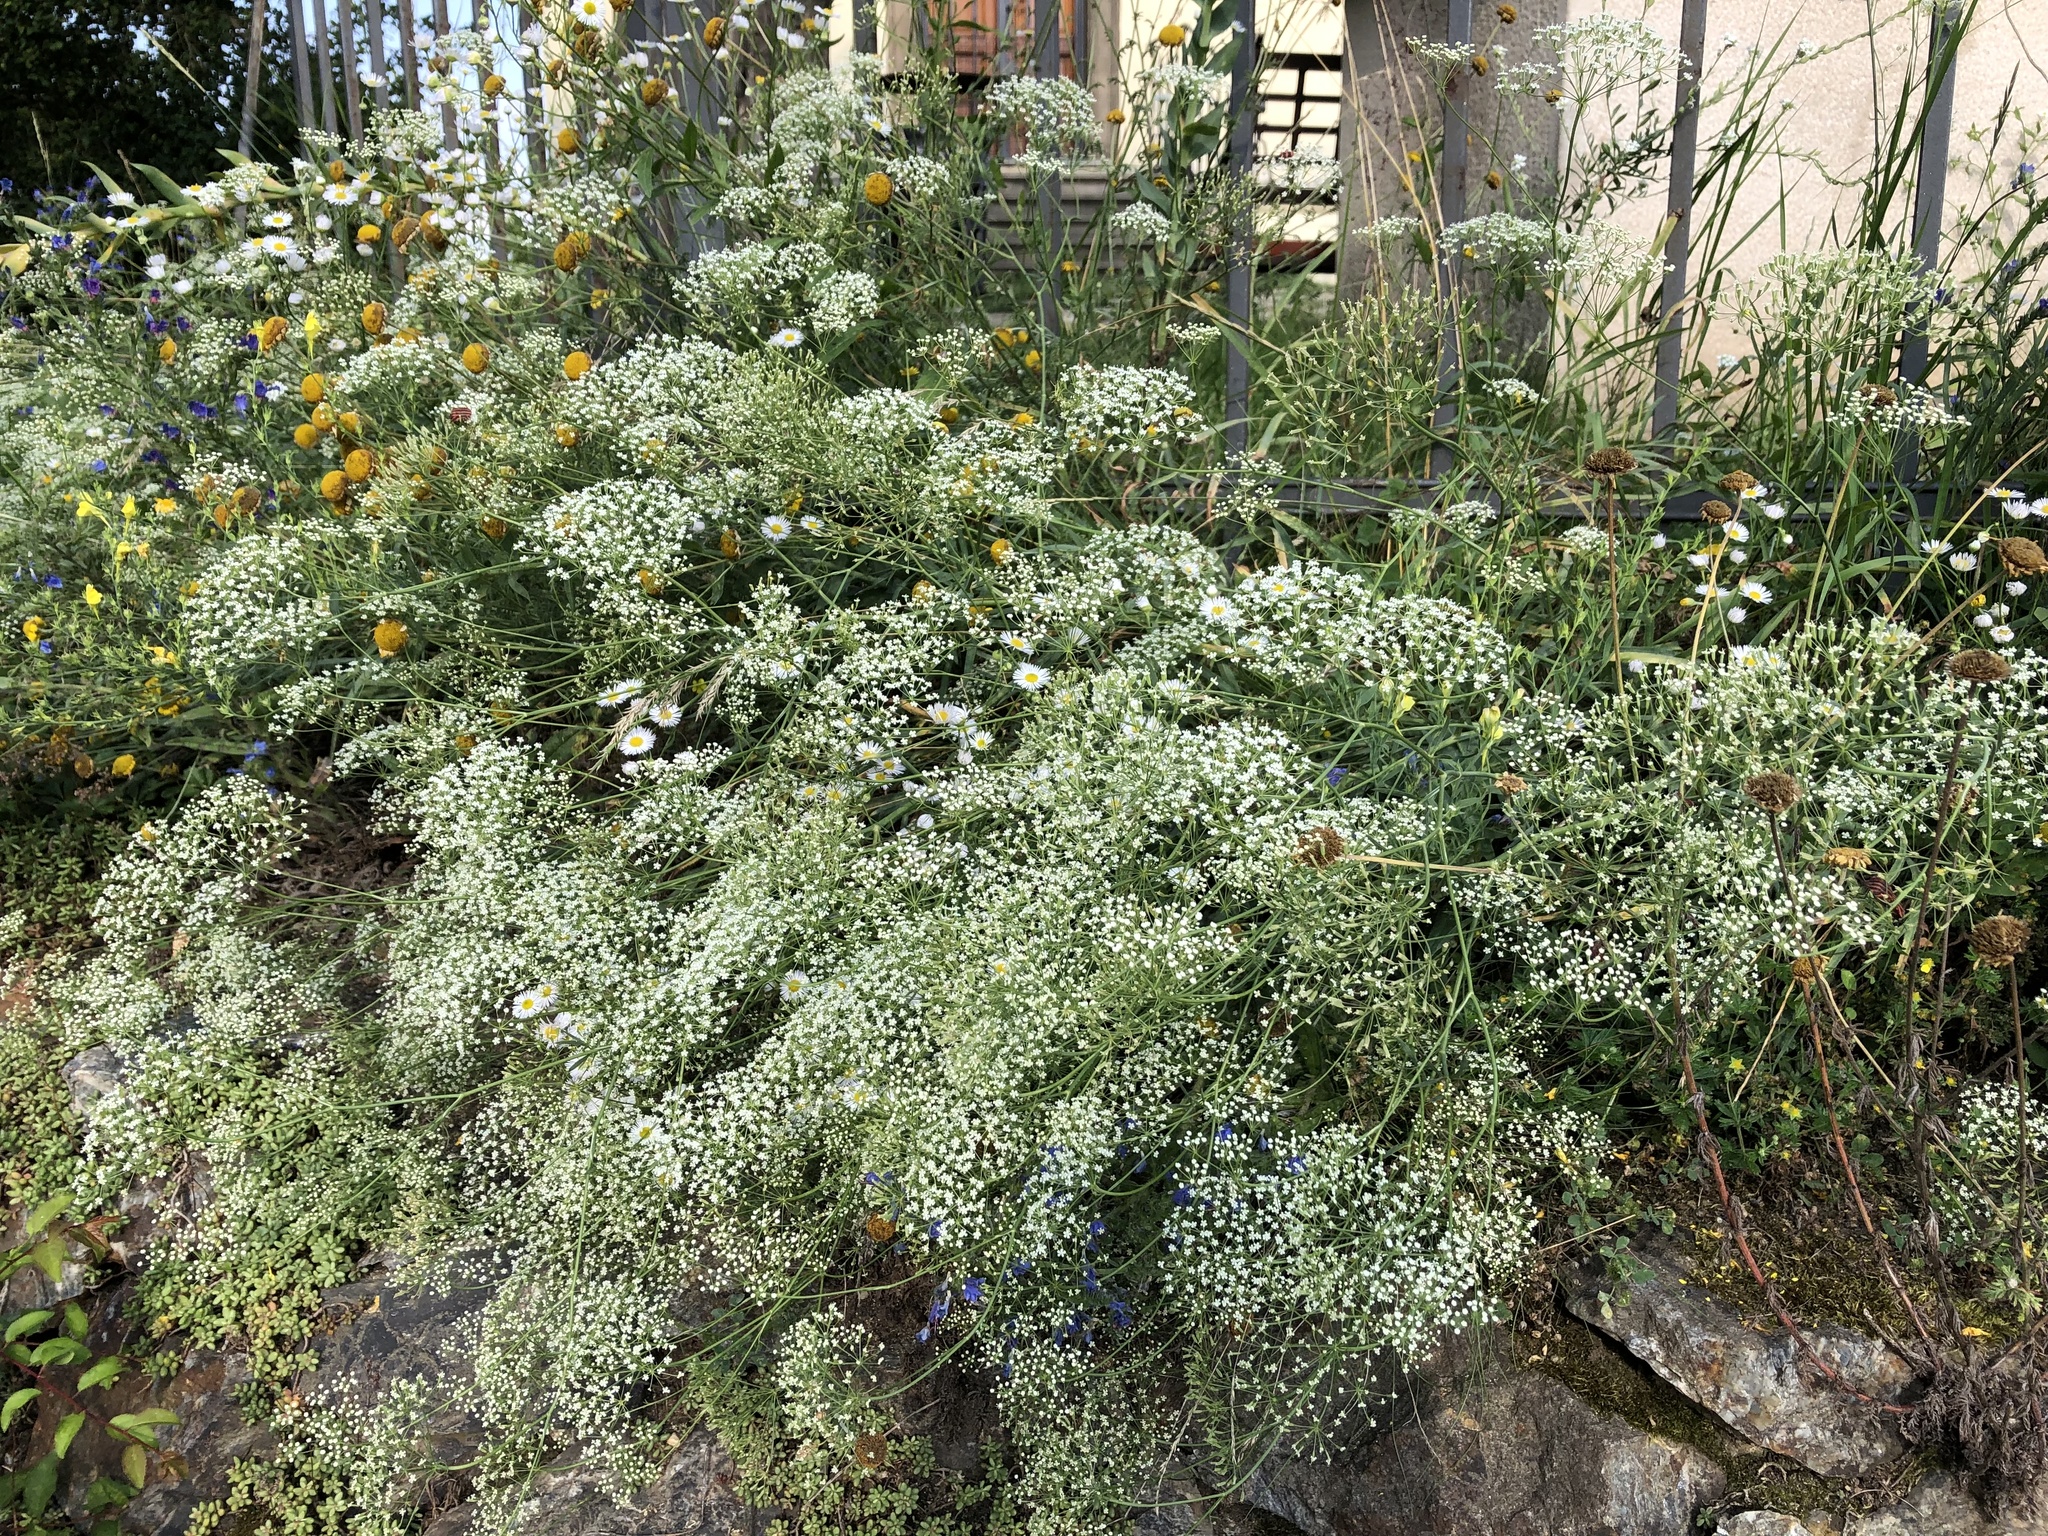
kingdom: Plantae
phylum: Tracheophyta
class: Magnoliopsida
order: Apiales
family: Apiaceae
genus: Falcaria
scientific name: Falcaria vulgaris
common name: Longleaf
